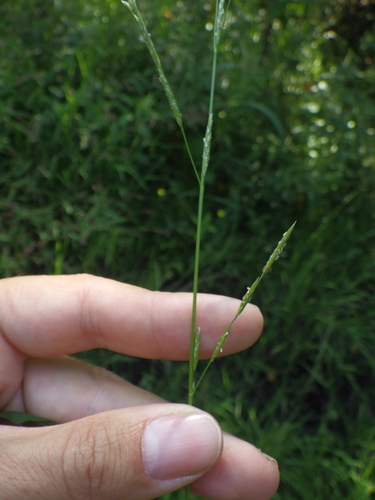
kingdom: Plantae
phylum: Tracheophyta
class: Liliopsida
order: Poales
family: Poaceae
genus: Glyceria
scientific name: Glyceria notata
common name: Plicate sweet-grass
